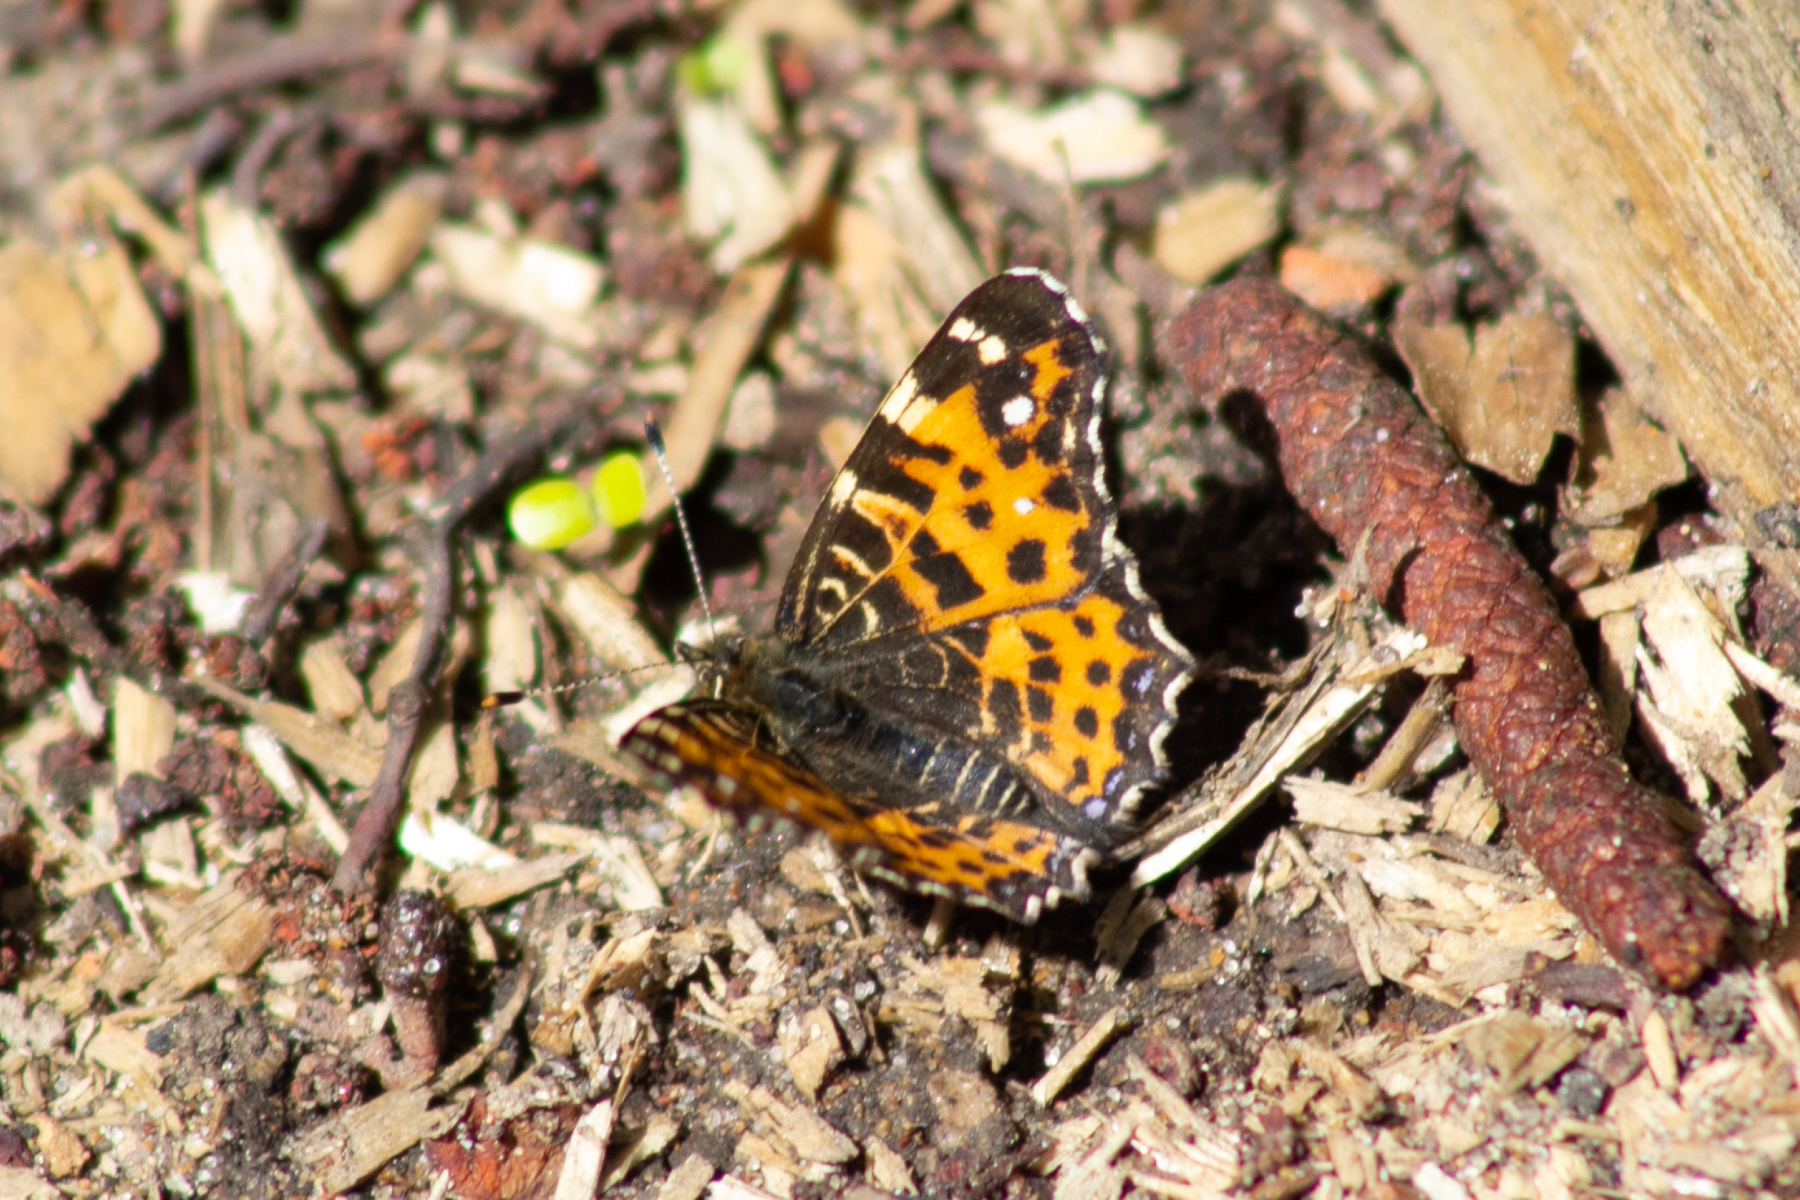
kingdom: Animalia
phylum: Arthropoda
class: Insecta
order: Lepidoptera
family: Nymphalidae
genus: Araschnia
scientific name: Araschnia levana
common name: Map butterfly
